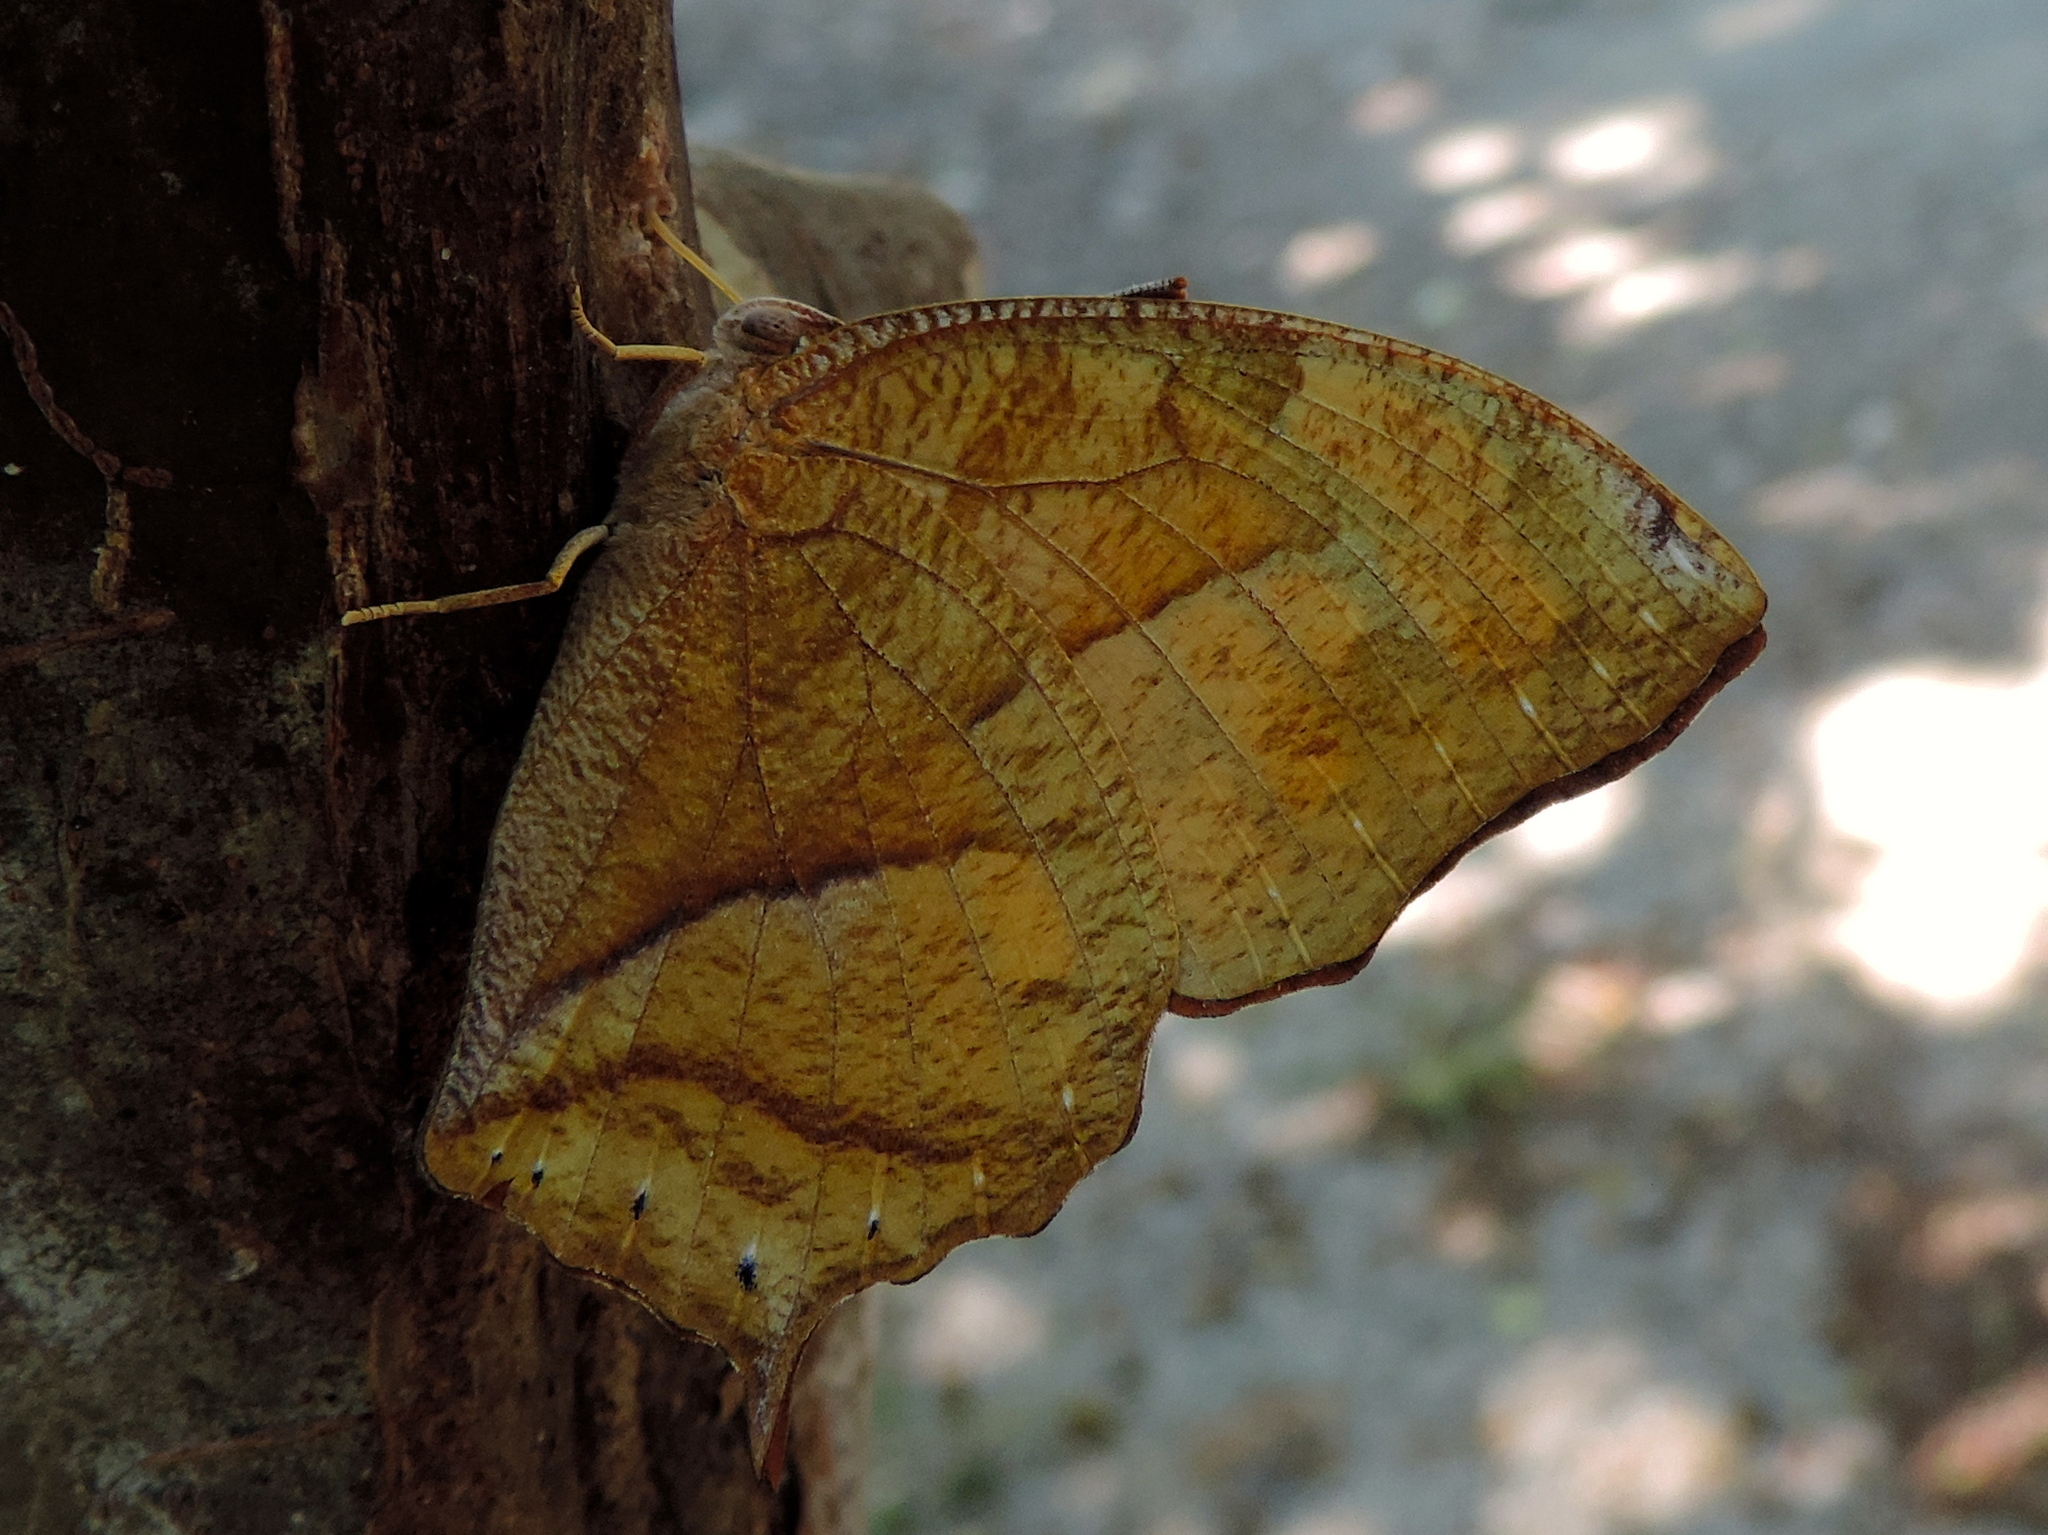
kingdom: Animalia
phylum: Arthropoda
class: Insecta
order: Lepidoptera
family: Nymphalidae
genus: Fountainea
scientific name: Fountainea
